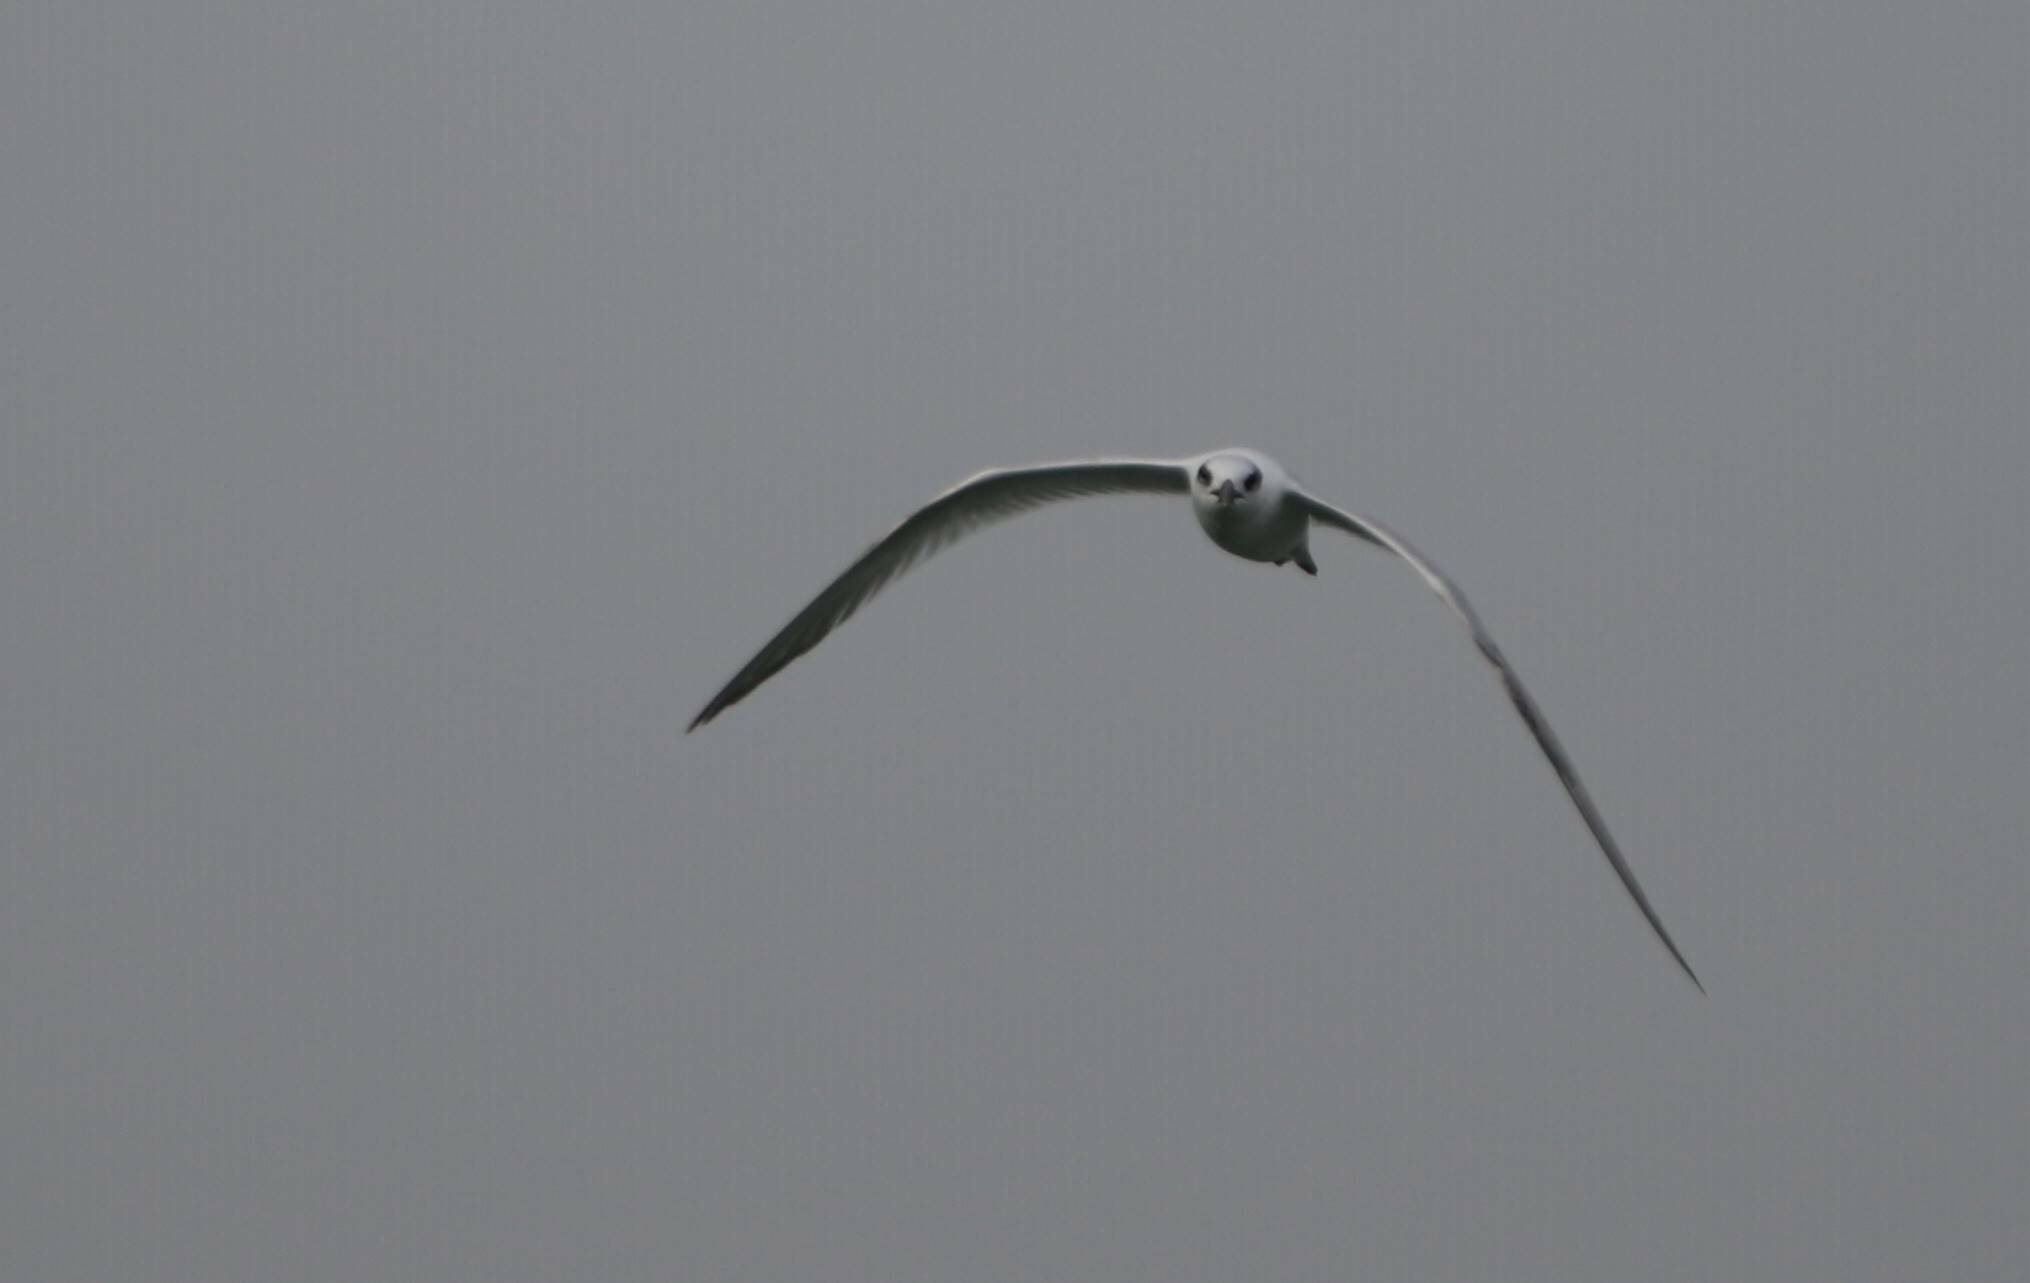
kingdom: Animalia
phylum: Chordata
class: Aves
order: Charadriiformes
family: Laridae
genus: Thalasseus
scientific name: Thalasseus sandvicensis
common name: Sandwich tern
